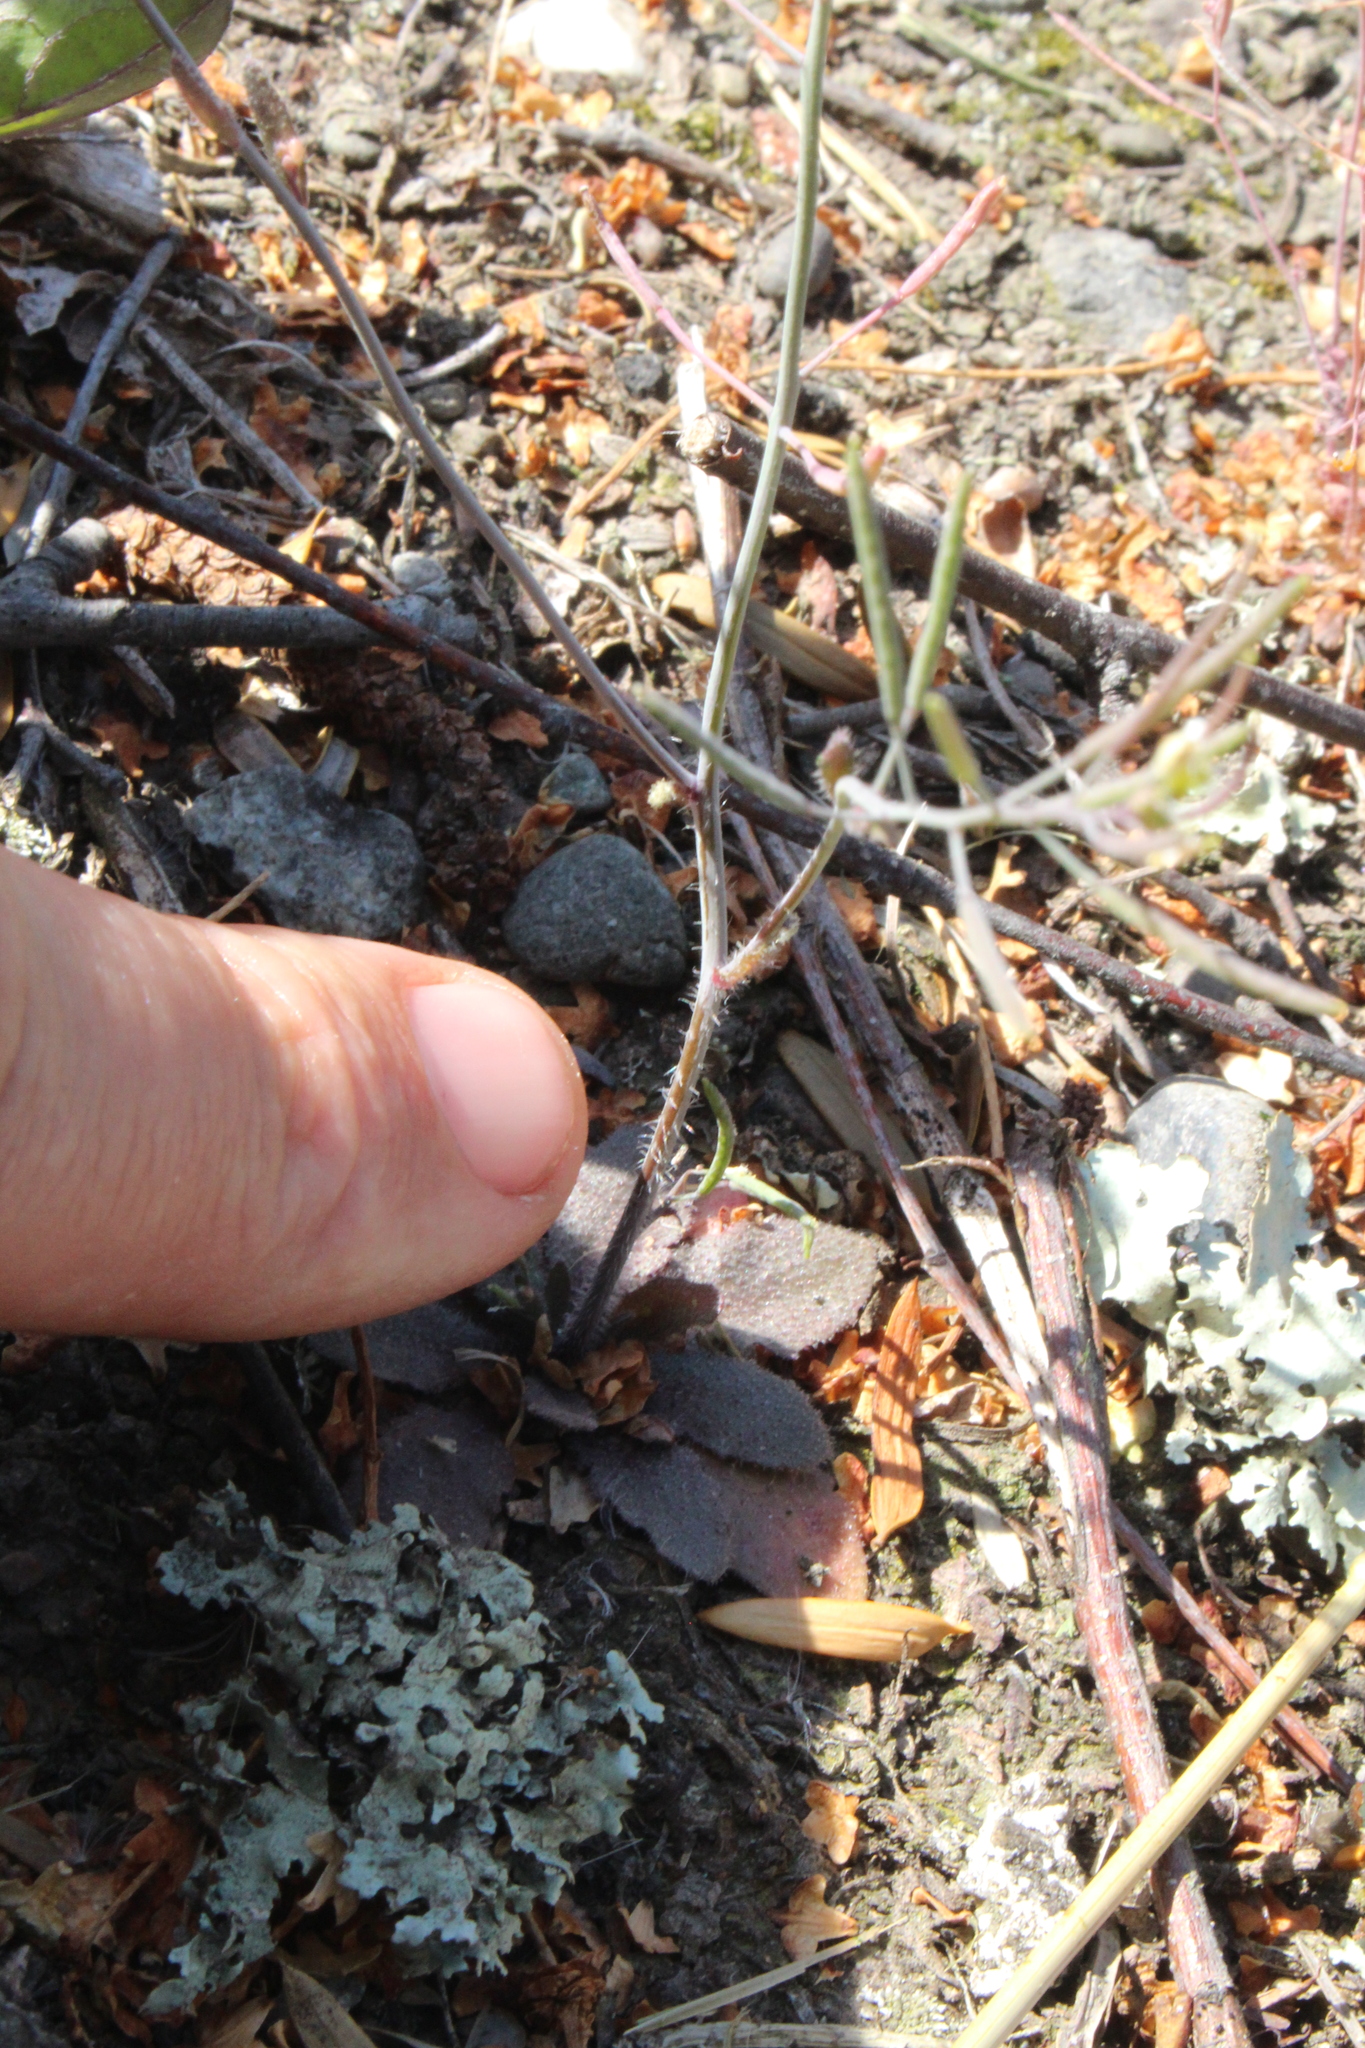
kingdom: Plantae
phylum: Tracheophyta
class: Magnoliopsida
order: Brassicales
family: Brassicaceae
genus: Arabidopsis
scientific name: Arabidopsis thaliana
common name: Thale cress
